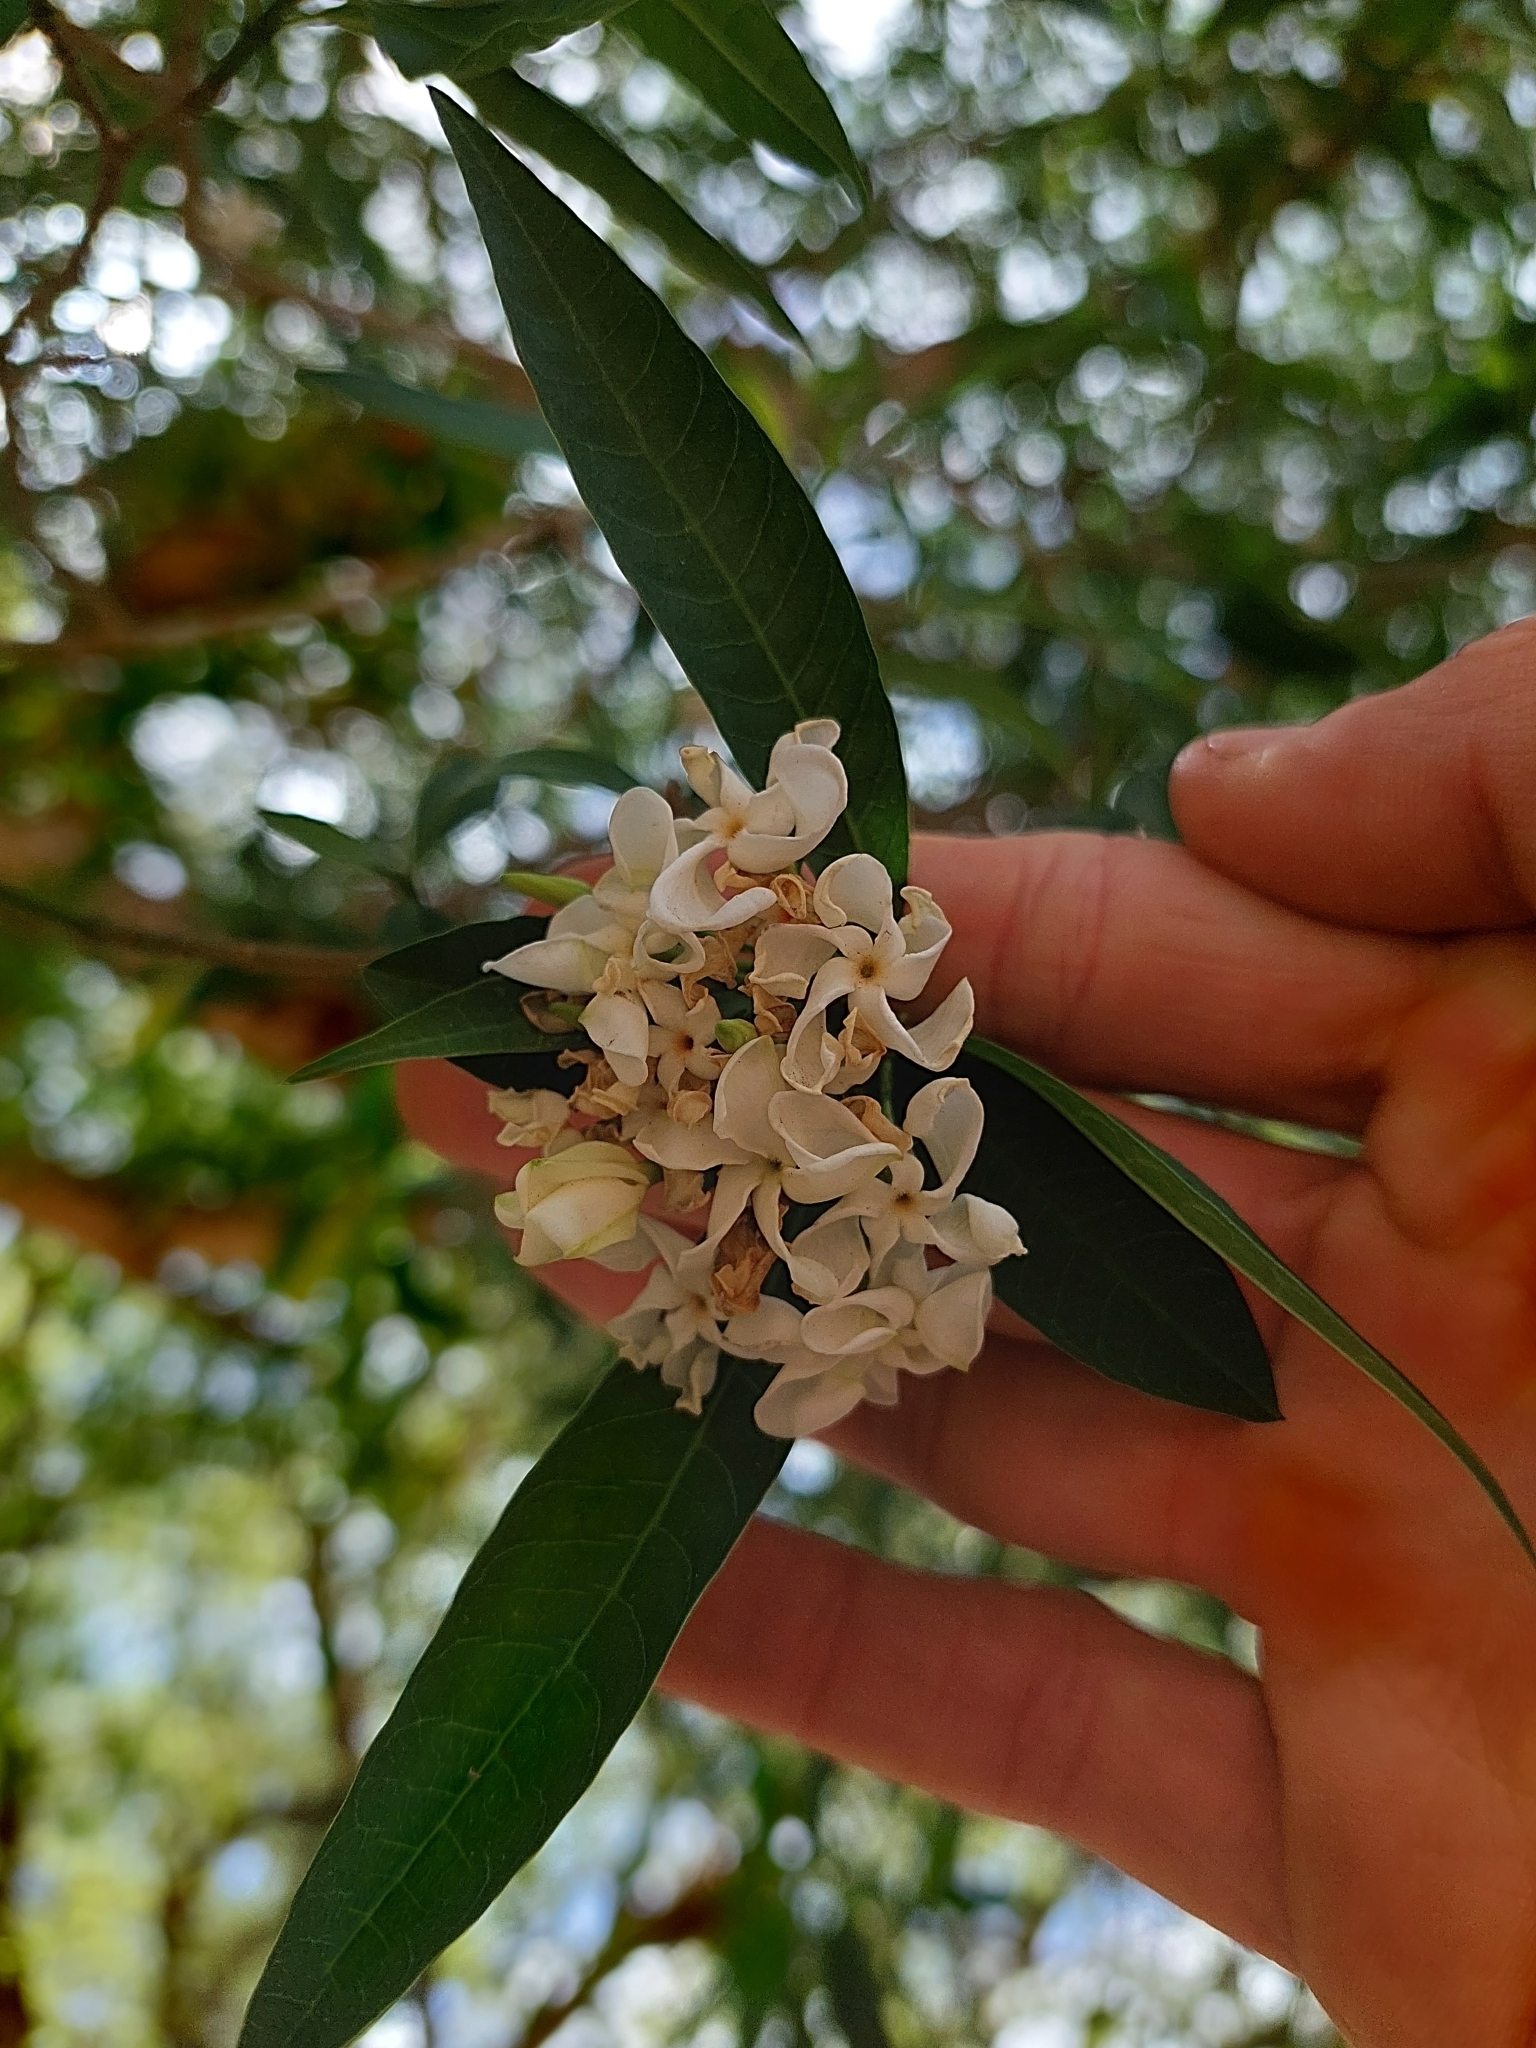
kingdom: Plantae
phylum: Tracheophyta
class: Magnoliopsida
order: Gentianales
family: Apocynaceae
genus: Tabernaemontana
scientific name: Tabernaemontana catharinensis
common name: Pinwheel-flower
